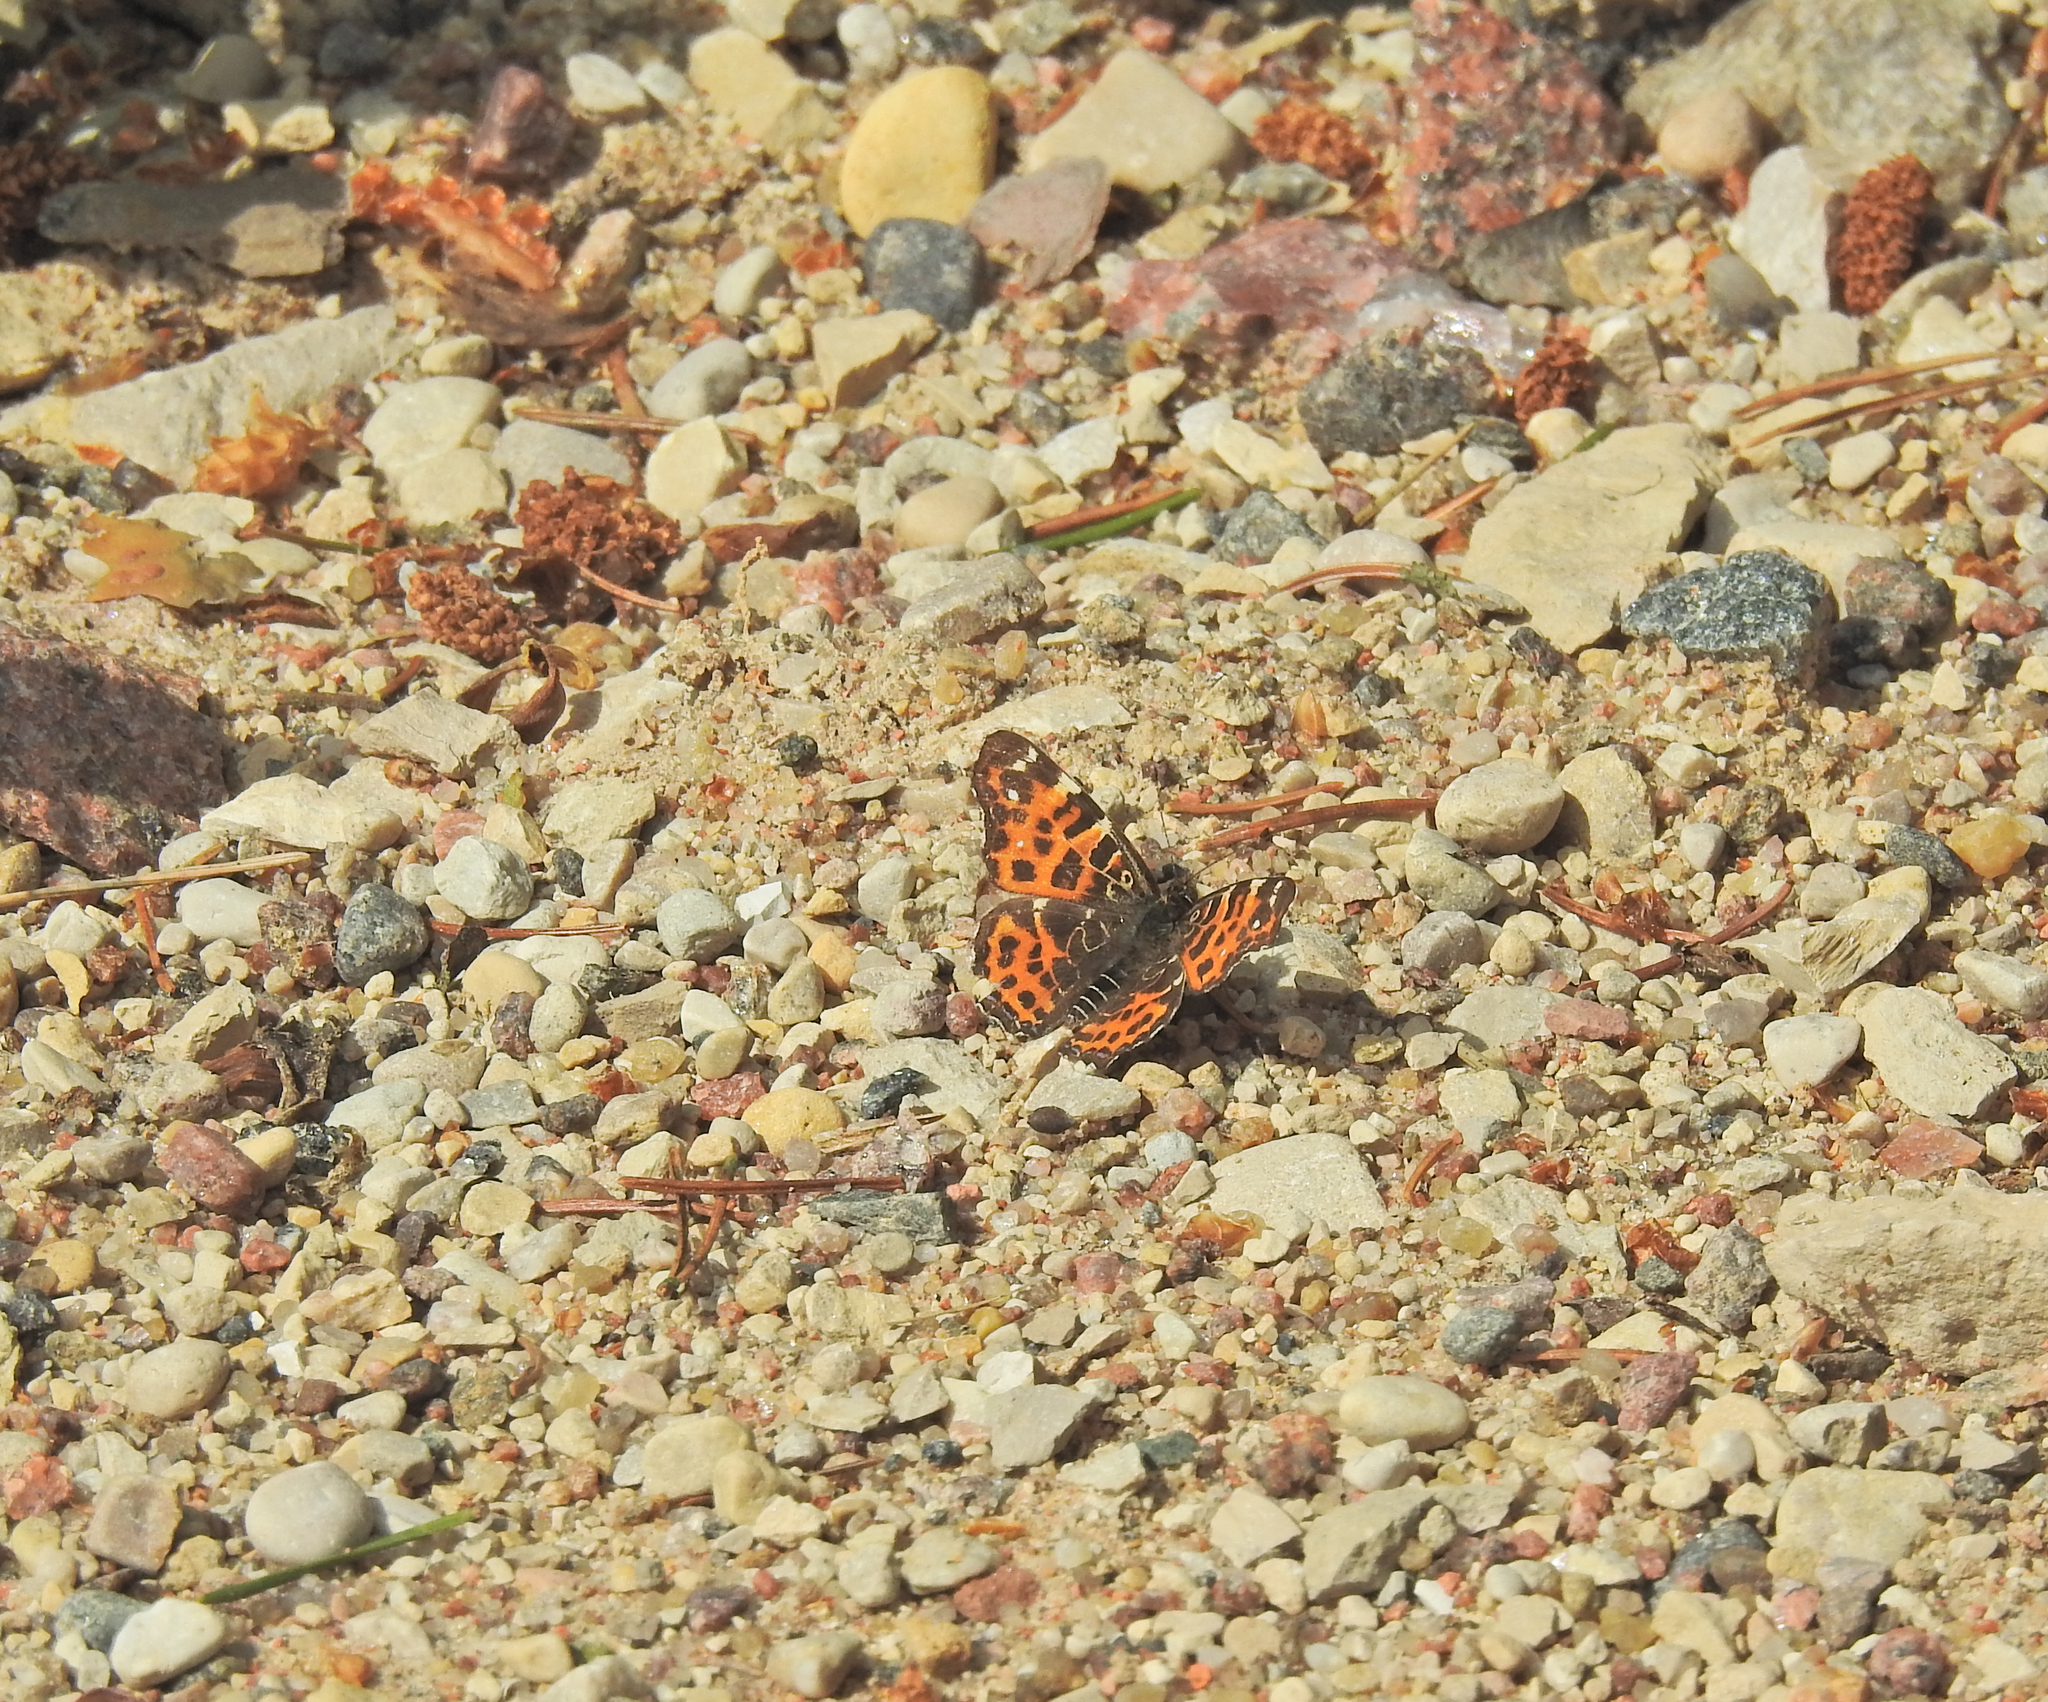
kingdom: Animalia
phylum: Arthropoda
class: Insecta
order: Lepidoptera
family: Nymphalidae
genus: Araschnia
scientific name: Araschnia levana
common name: Map butterfly
